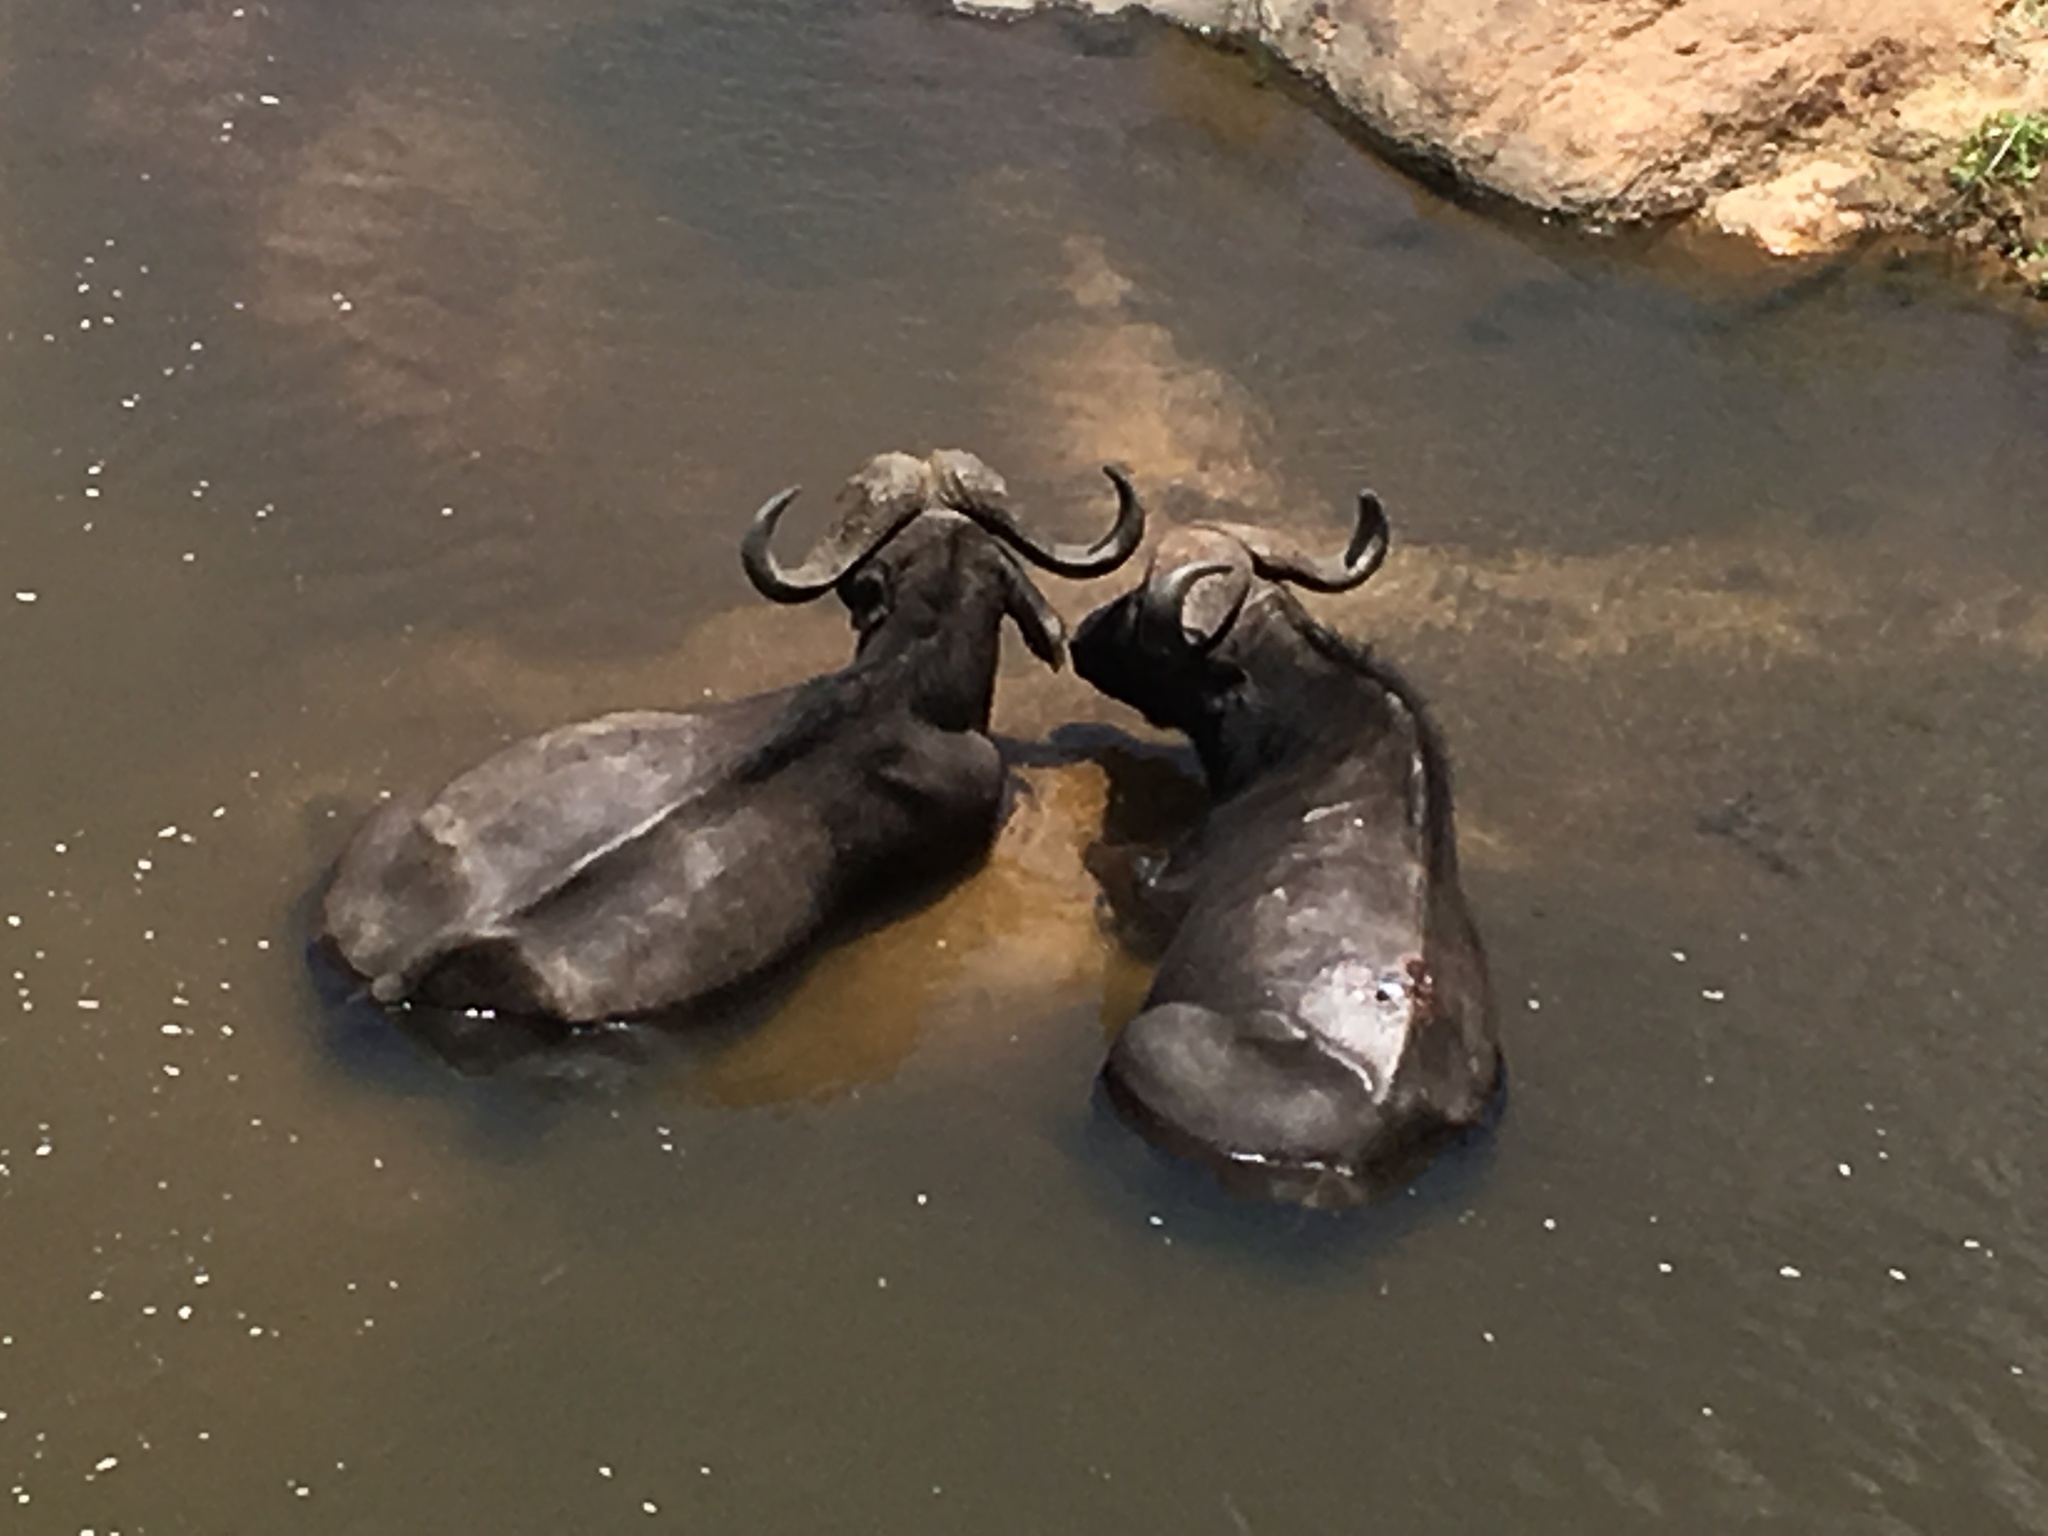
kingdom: Animalia
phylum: Chordata
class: Mammalia
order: Artiodactyla
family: Bovidae
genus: Syncerus
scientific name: Syncerus caffer
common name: African buffalo
